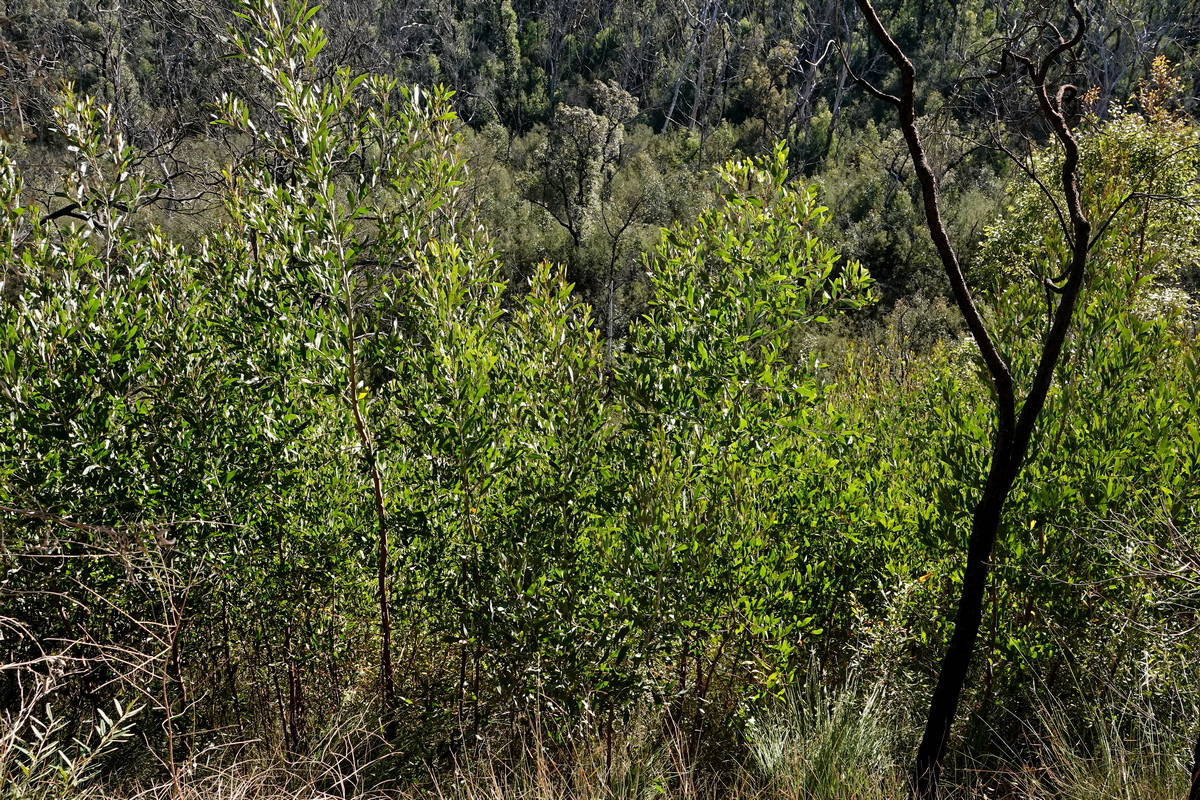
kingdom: Plantae
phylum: Tracheophyta
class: Magnoliopsida
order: Fabales
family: Fabaceae
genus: Acacia
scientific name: Acacia georgensis
